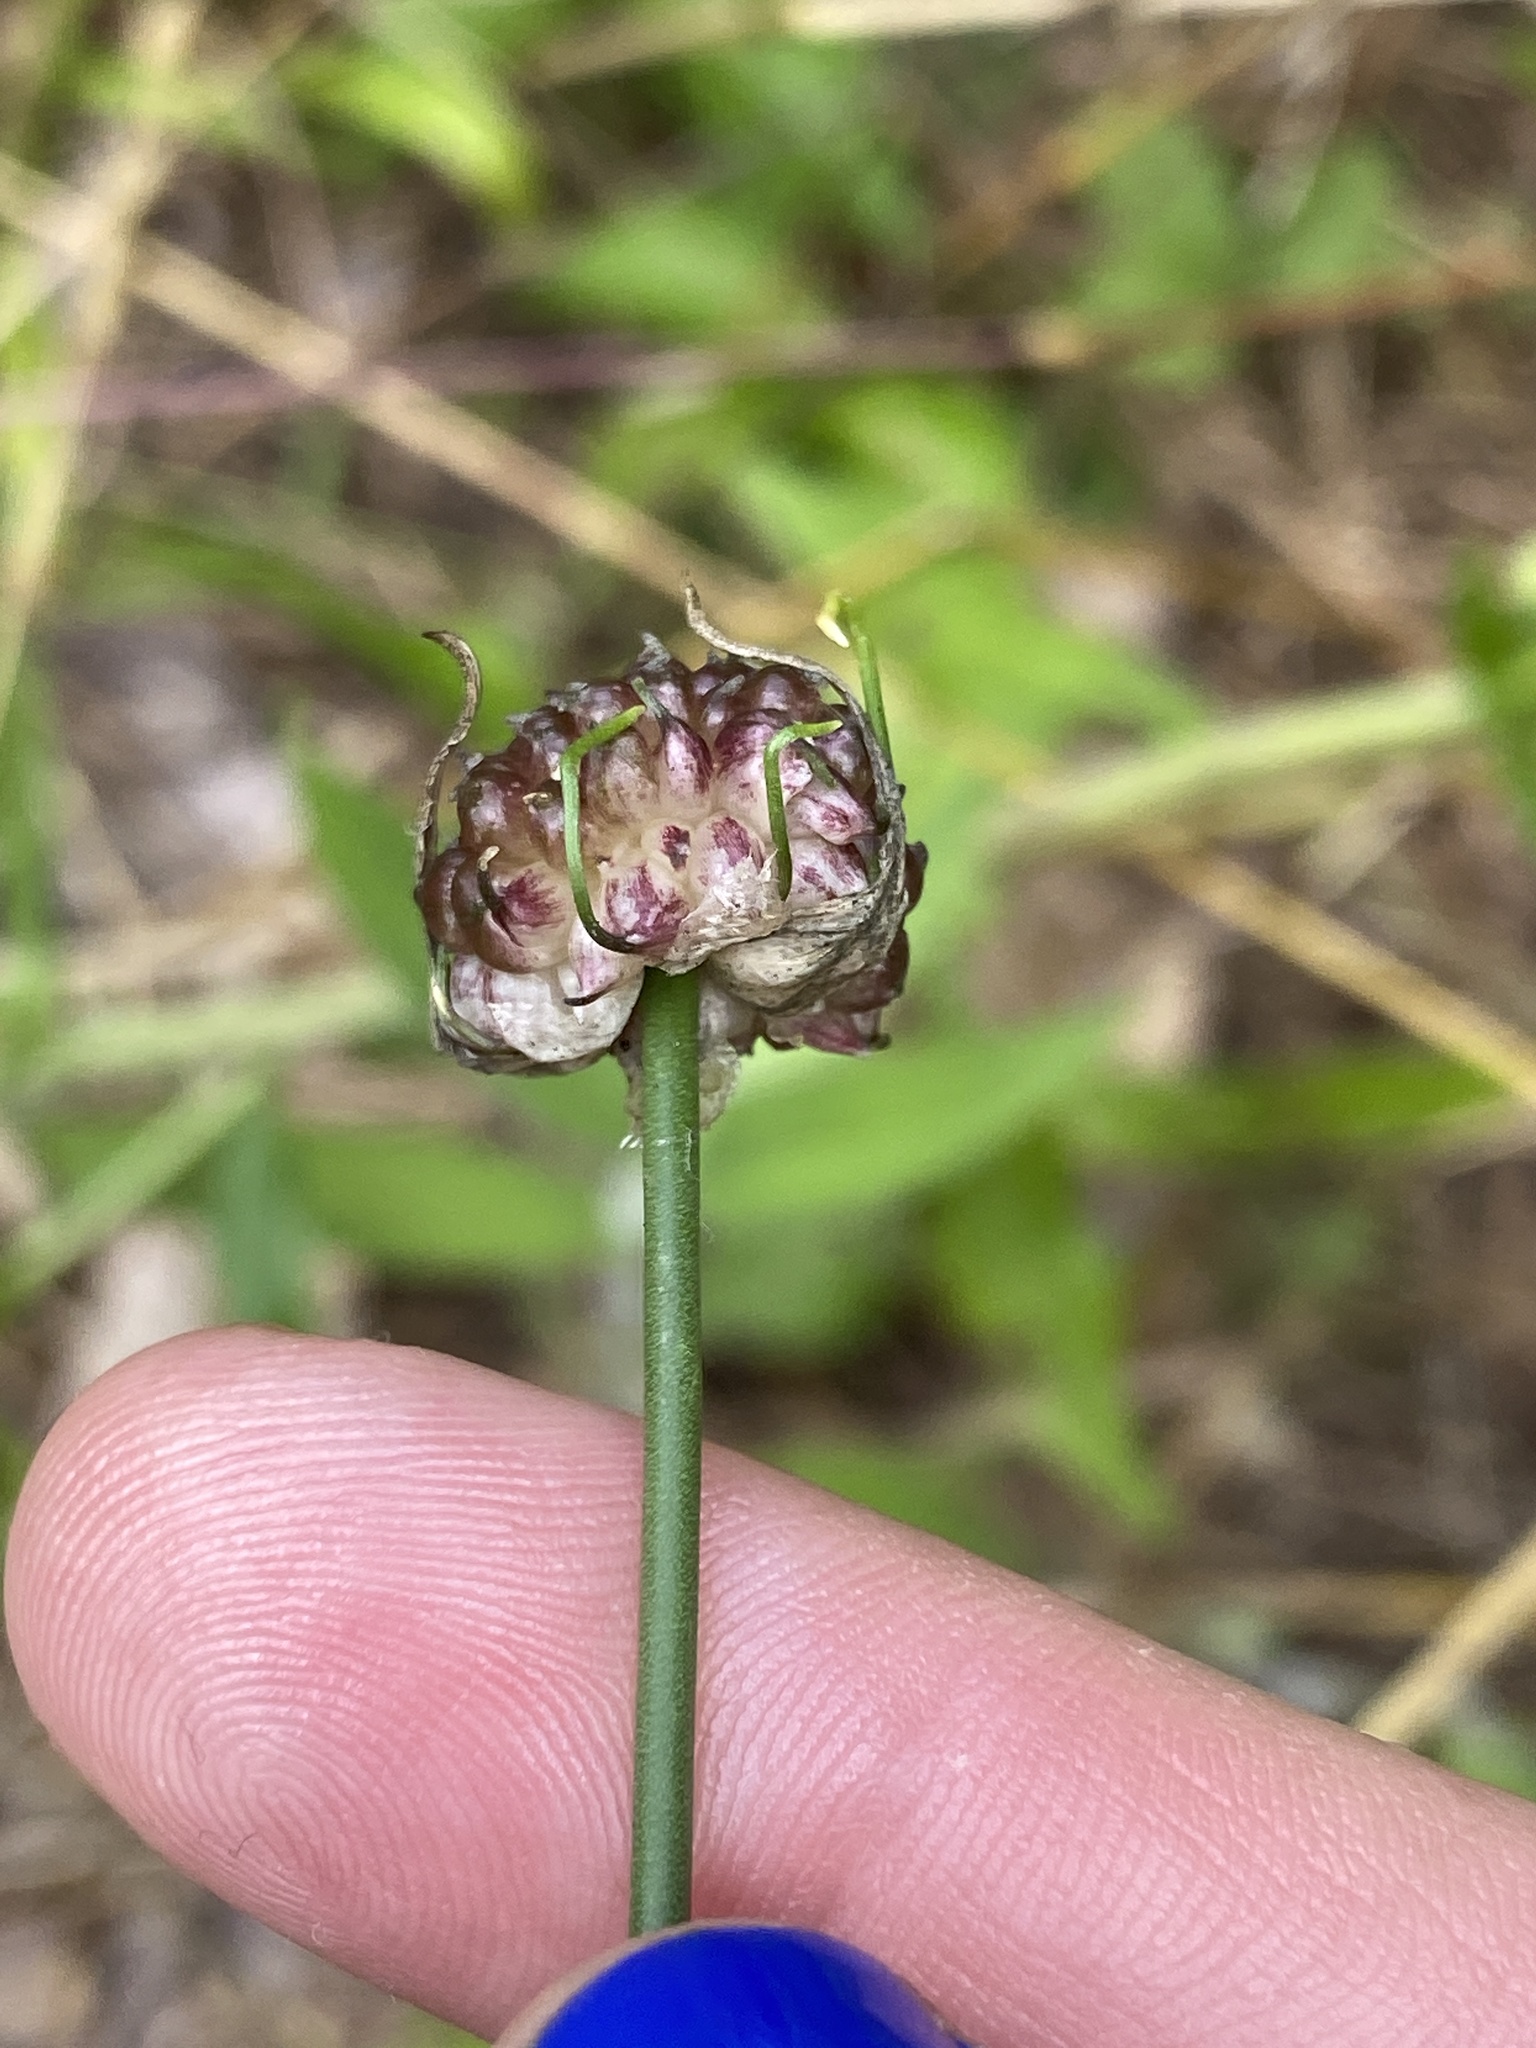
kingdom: Plantae
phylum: Tracheophyta
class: Liliopsida
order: Asparagales
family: Amaryllidaceae
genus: Allium
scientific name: Allium vineale
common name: Crow garlic
